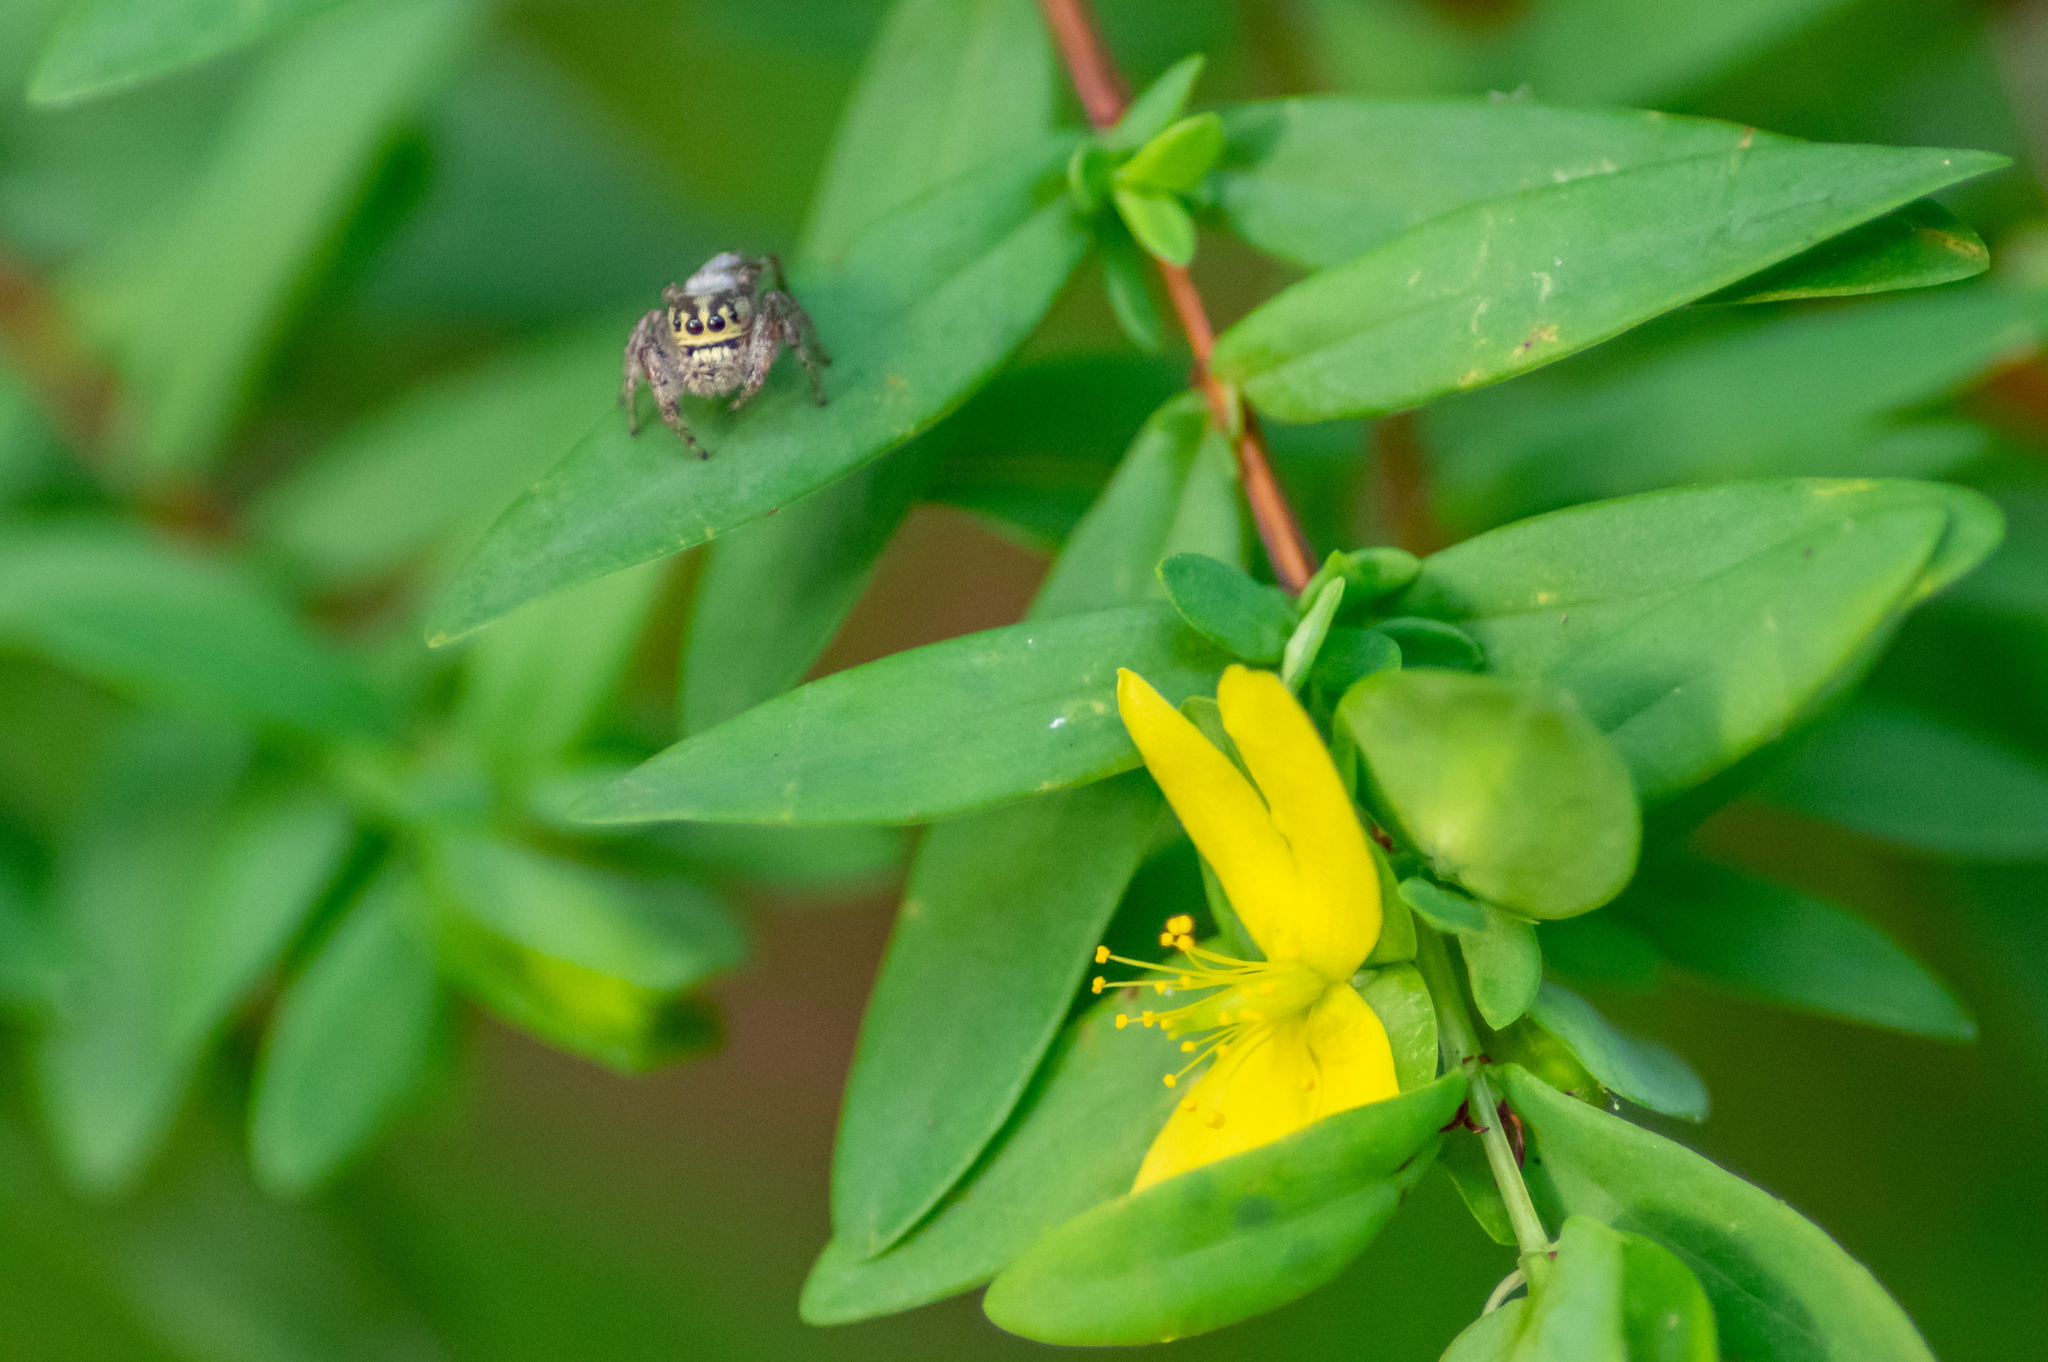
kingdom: Animalia
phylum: Arthropoda
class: Arachnida
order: Araneae
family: Salticidae
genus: Eris
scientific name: Eris floridana
